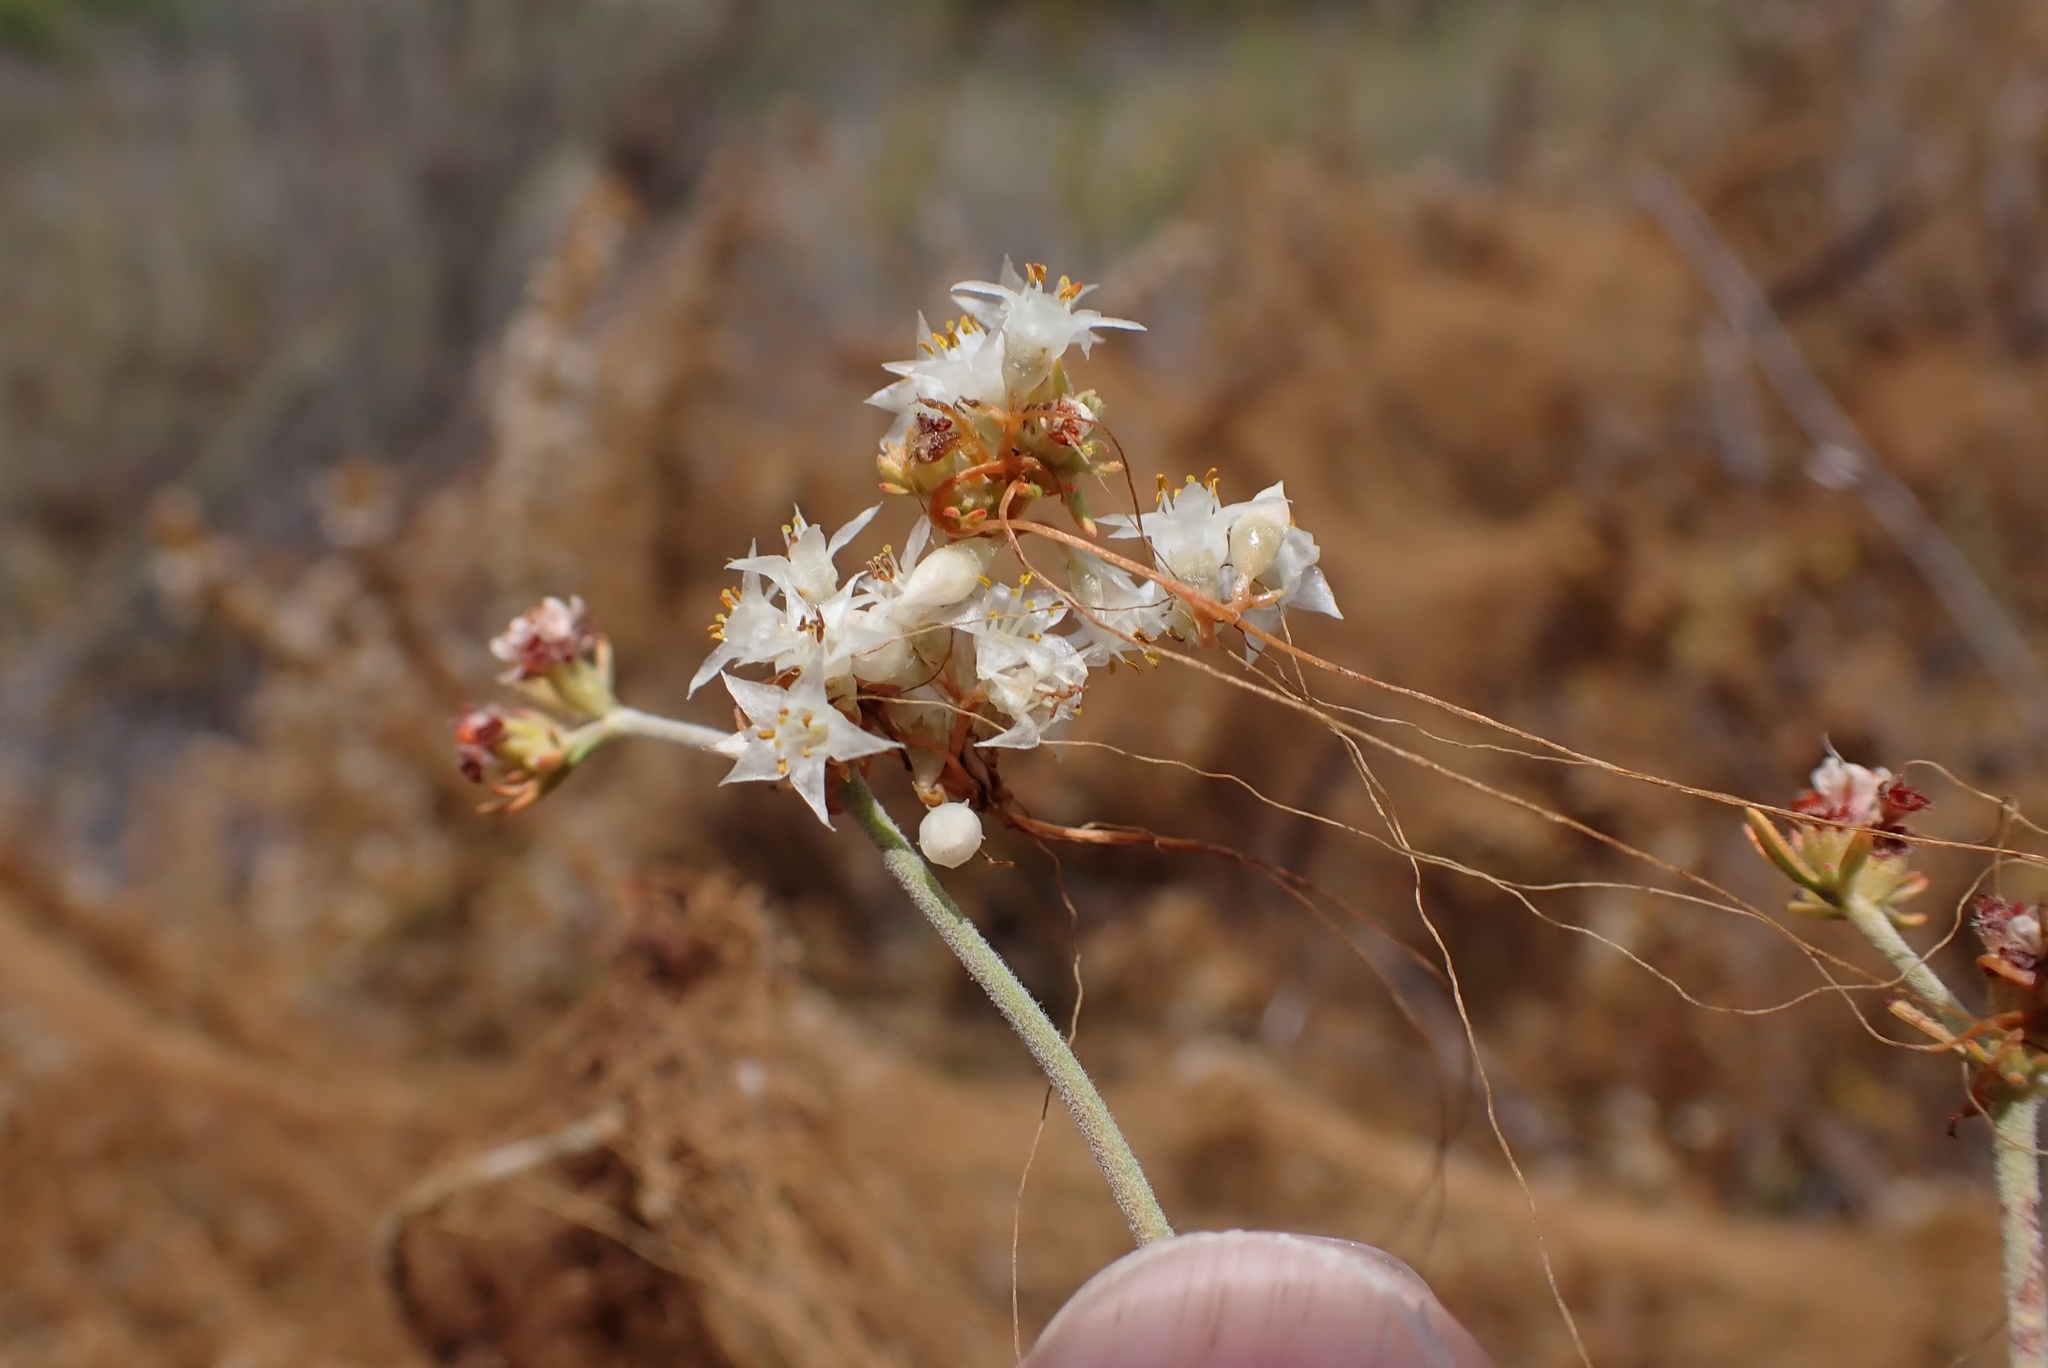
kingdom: Plantae
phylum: Tracheophyta
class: Magnoliopsida
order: Solanales
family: Convolvulaceae
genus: Cuscuta
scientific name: Cuscuta californica
